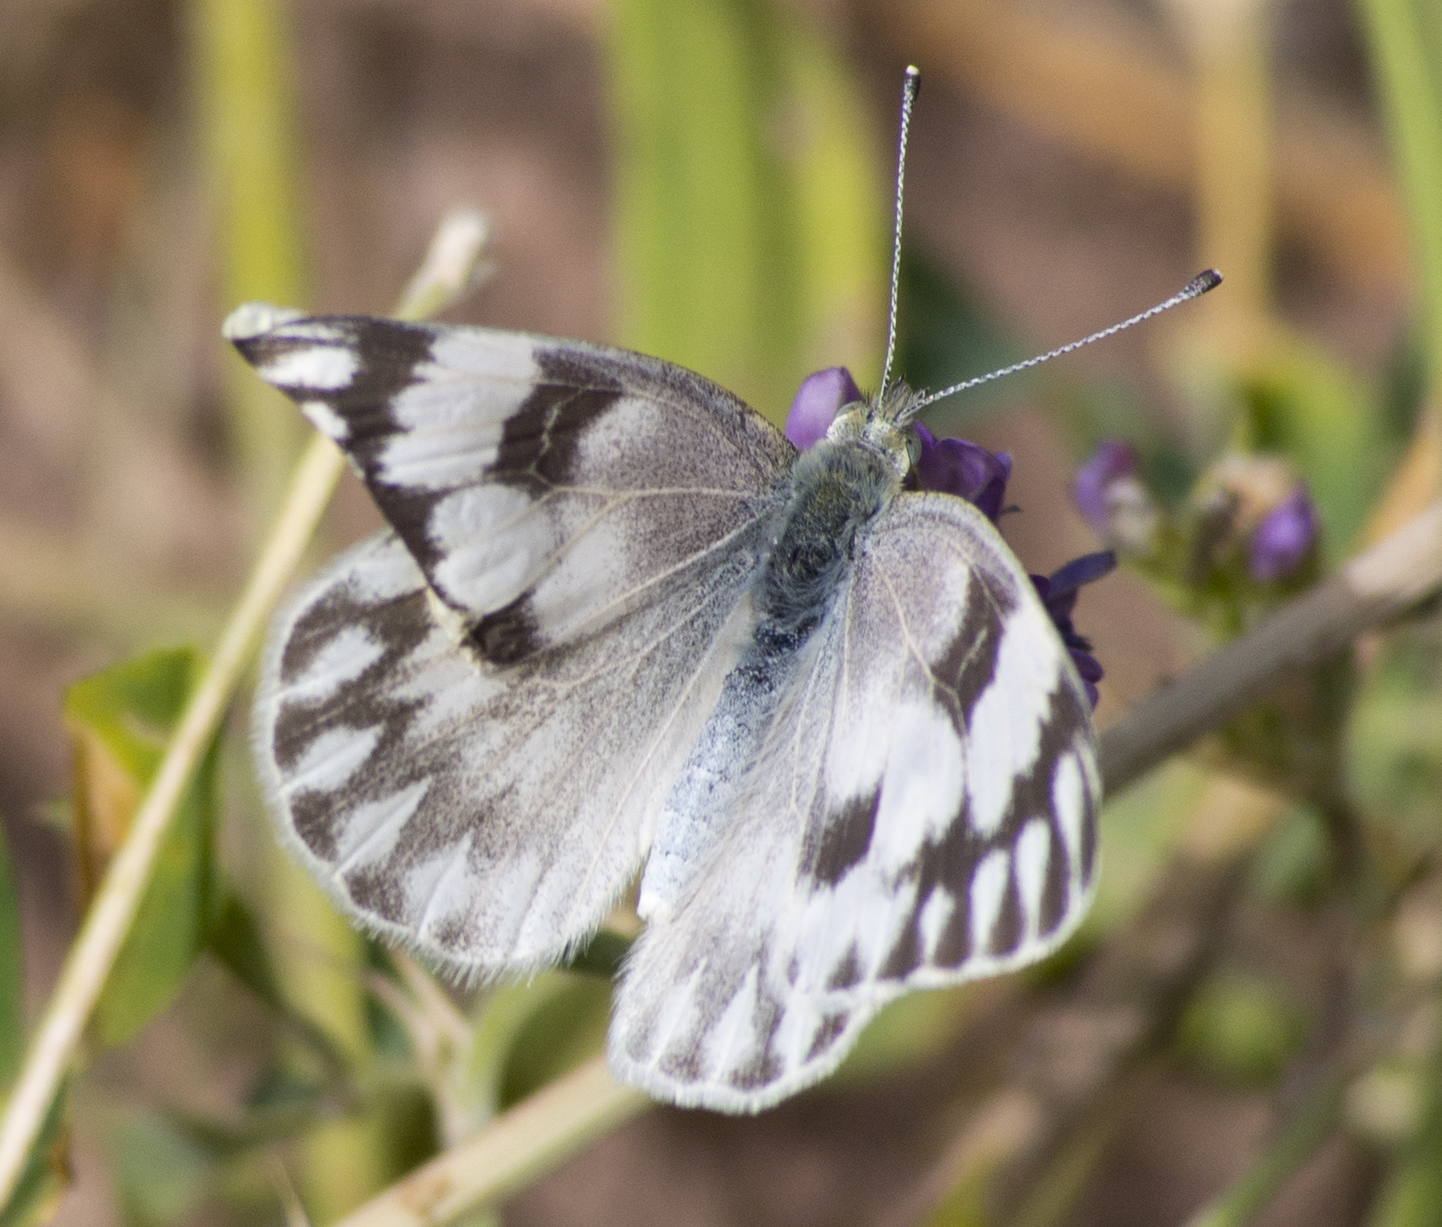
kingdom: Animalia
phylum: Arthropoda
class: Insecta
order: Lepidoptera
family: Pieridae
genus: Pontia
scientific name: Pontia occidentalis
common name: Western white
